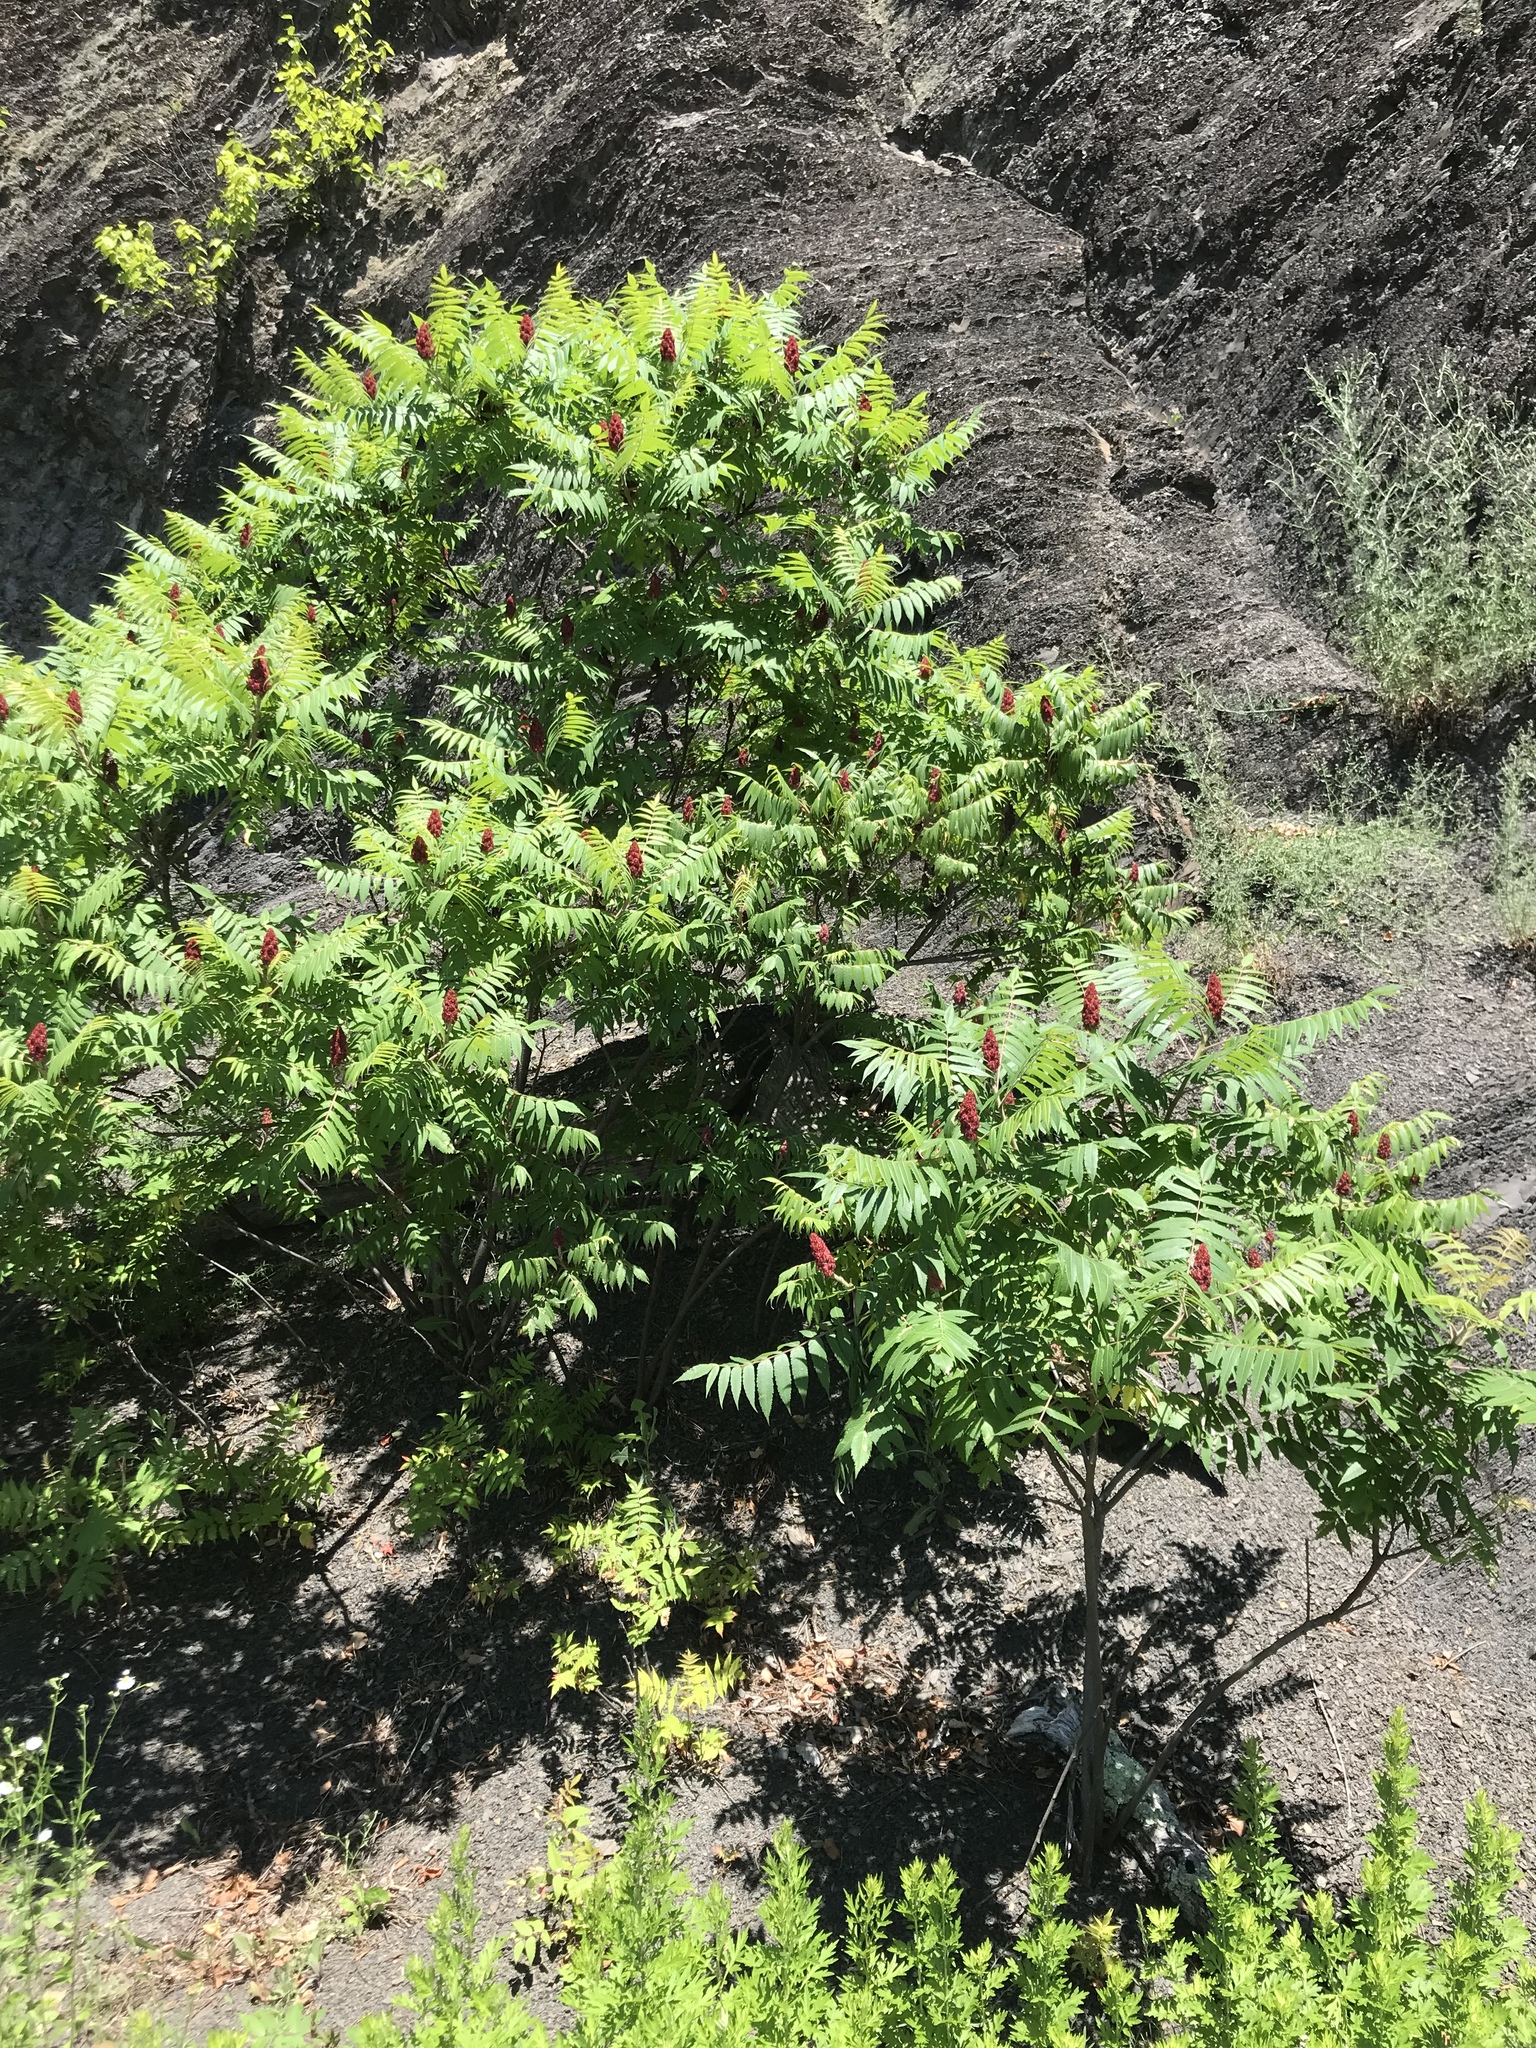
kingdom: Plantae
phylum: Tracheophyta
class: Magnoliopsida
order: Sapindales
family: Anacardiaceae
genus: Rhus
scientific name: Rhus typhina
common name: Staghorn sumac
